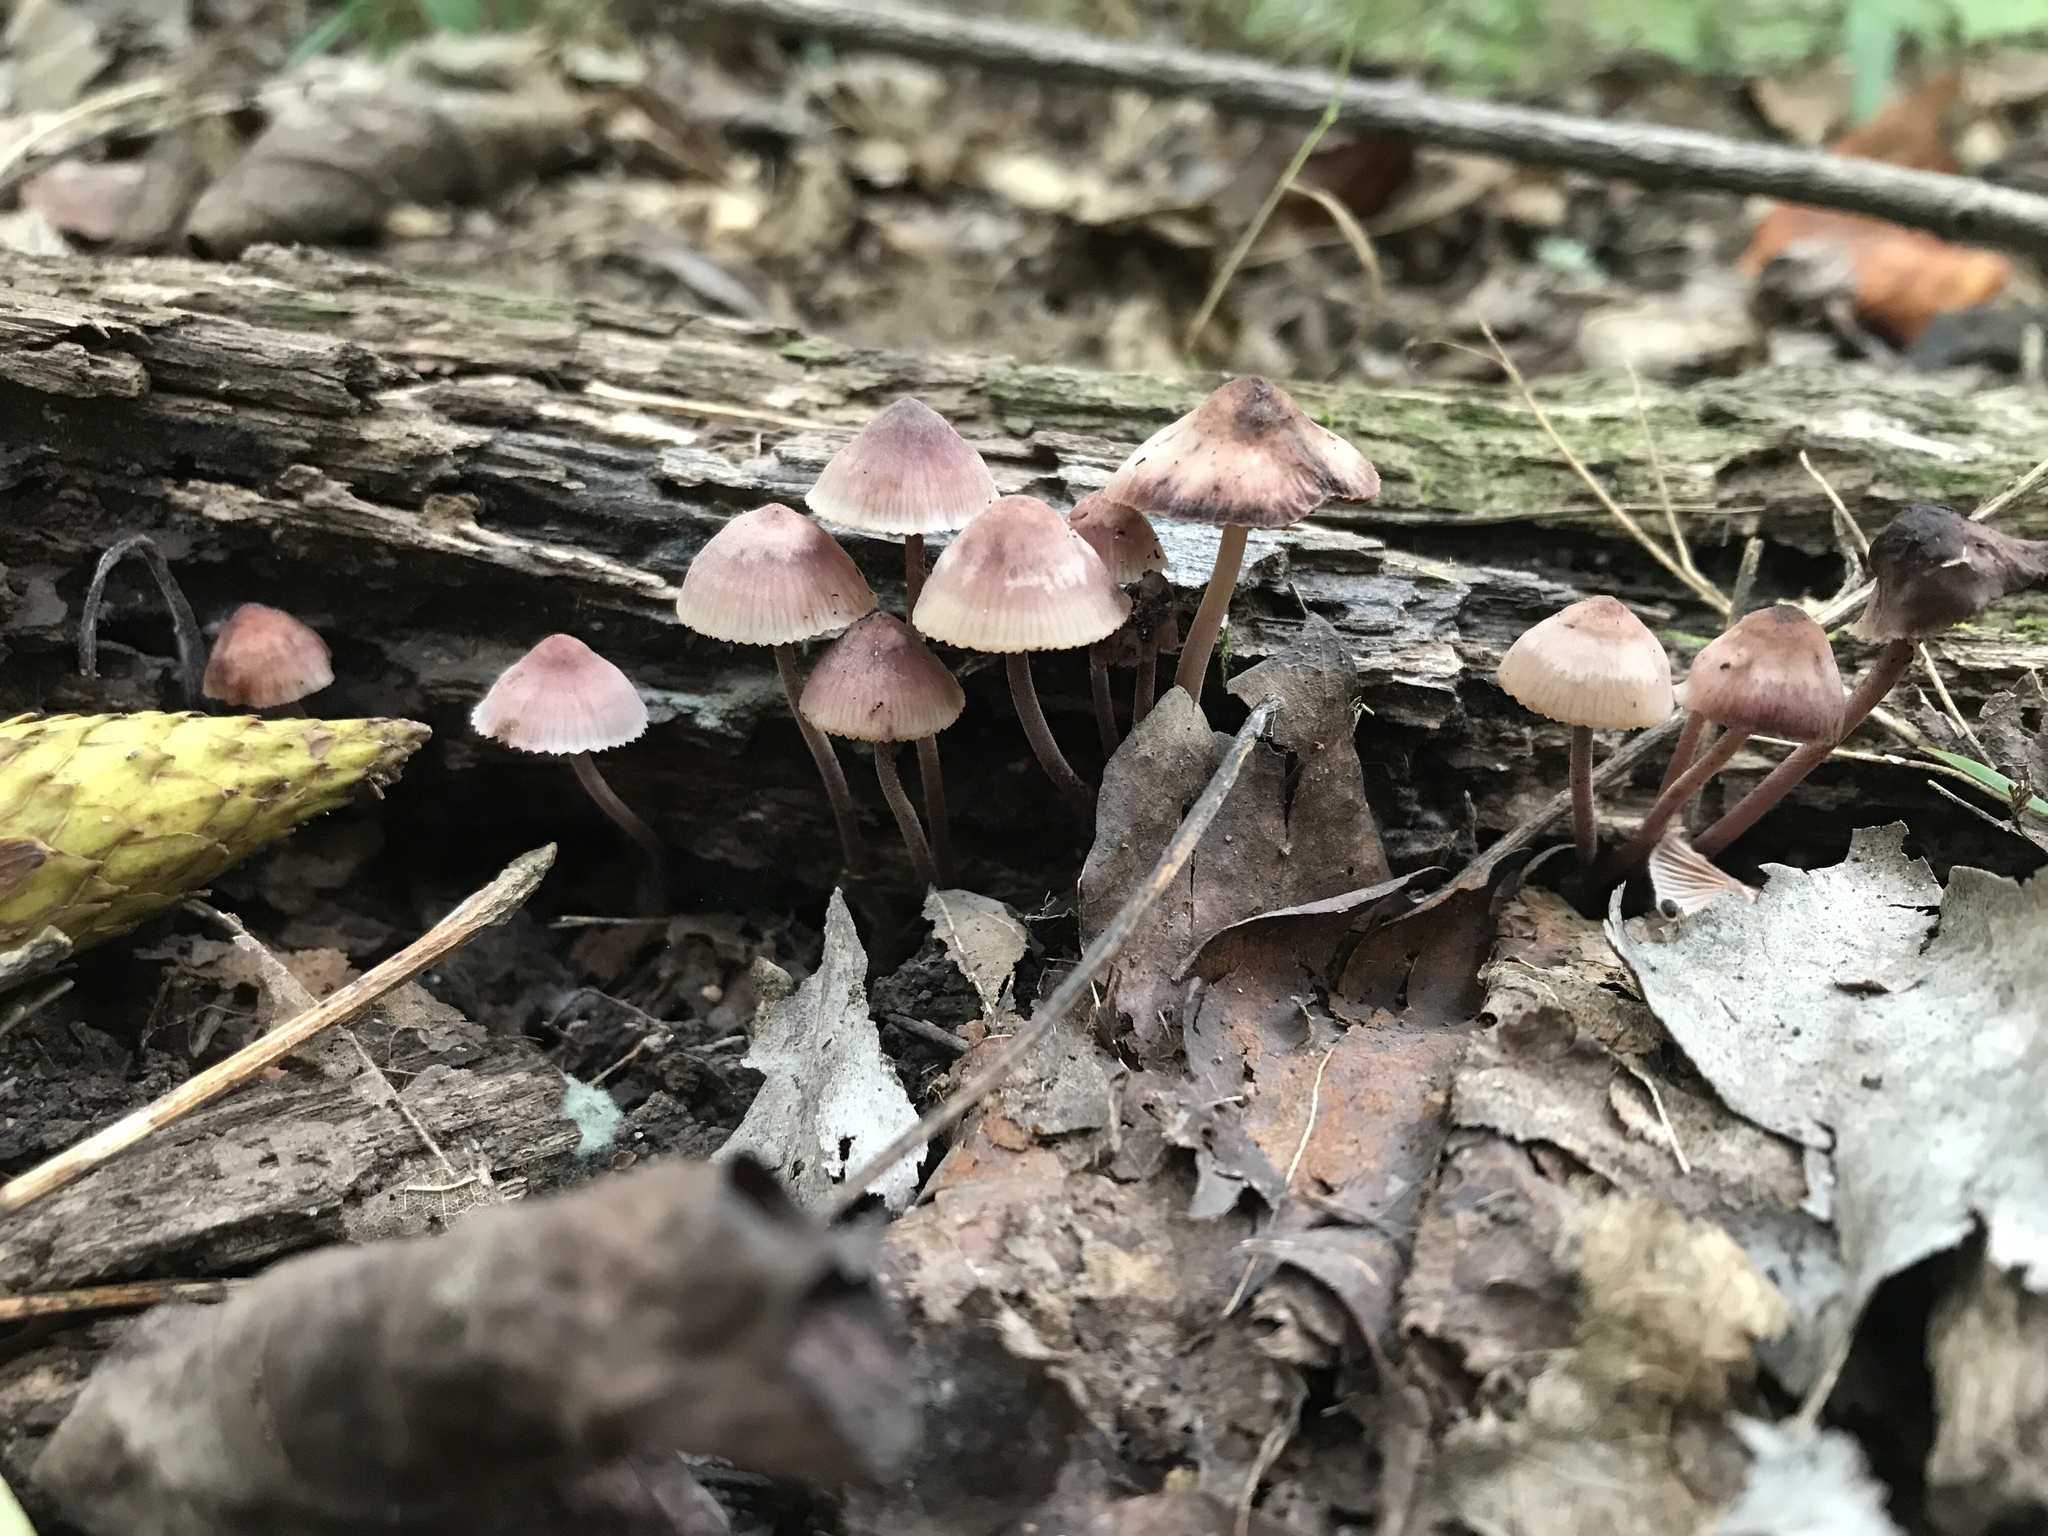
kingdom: Fungi
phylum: Basidiomycota
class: Agaricomycetes
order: Agaricales
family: Mycenaceae
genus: Mycena
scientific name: Mycena haematopus
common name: Burgundydrop bonnet
